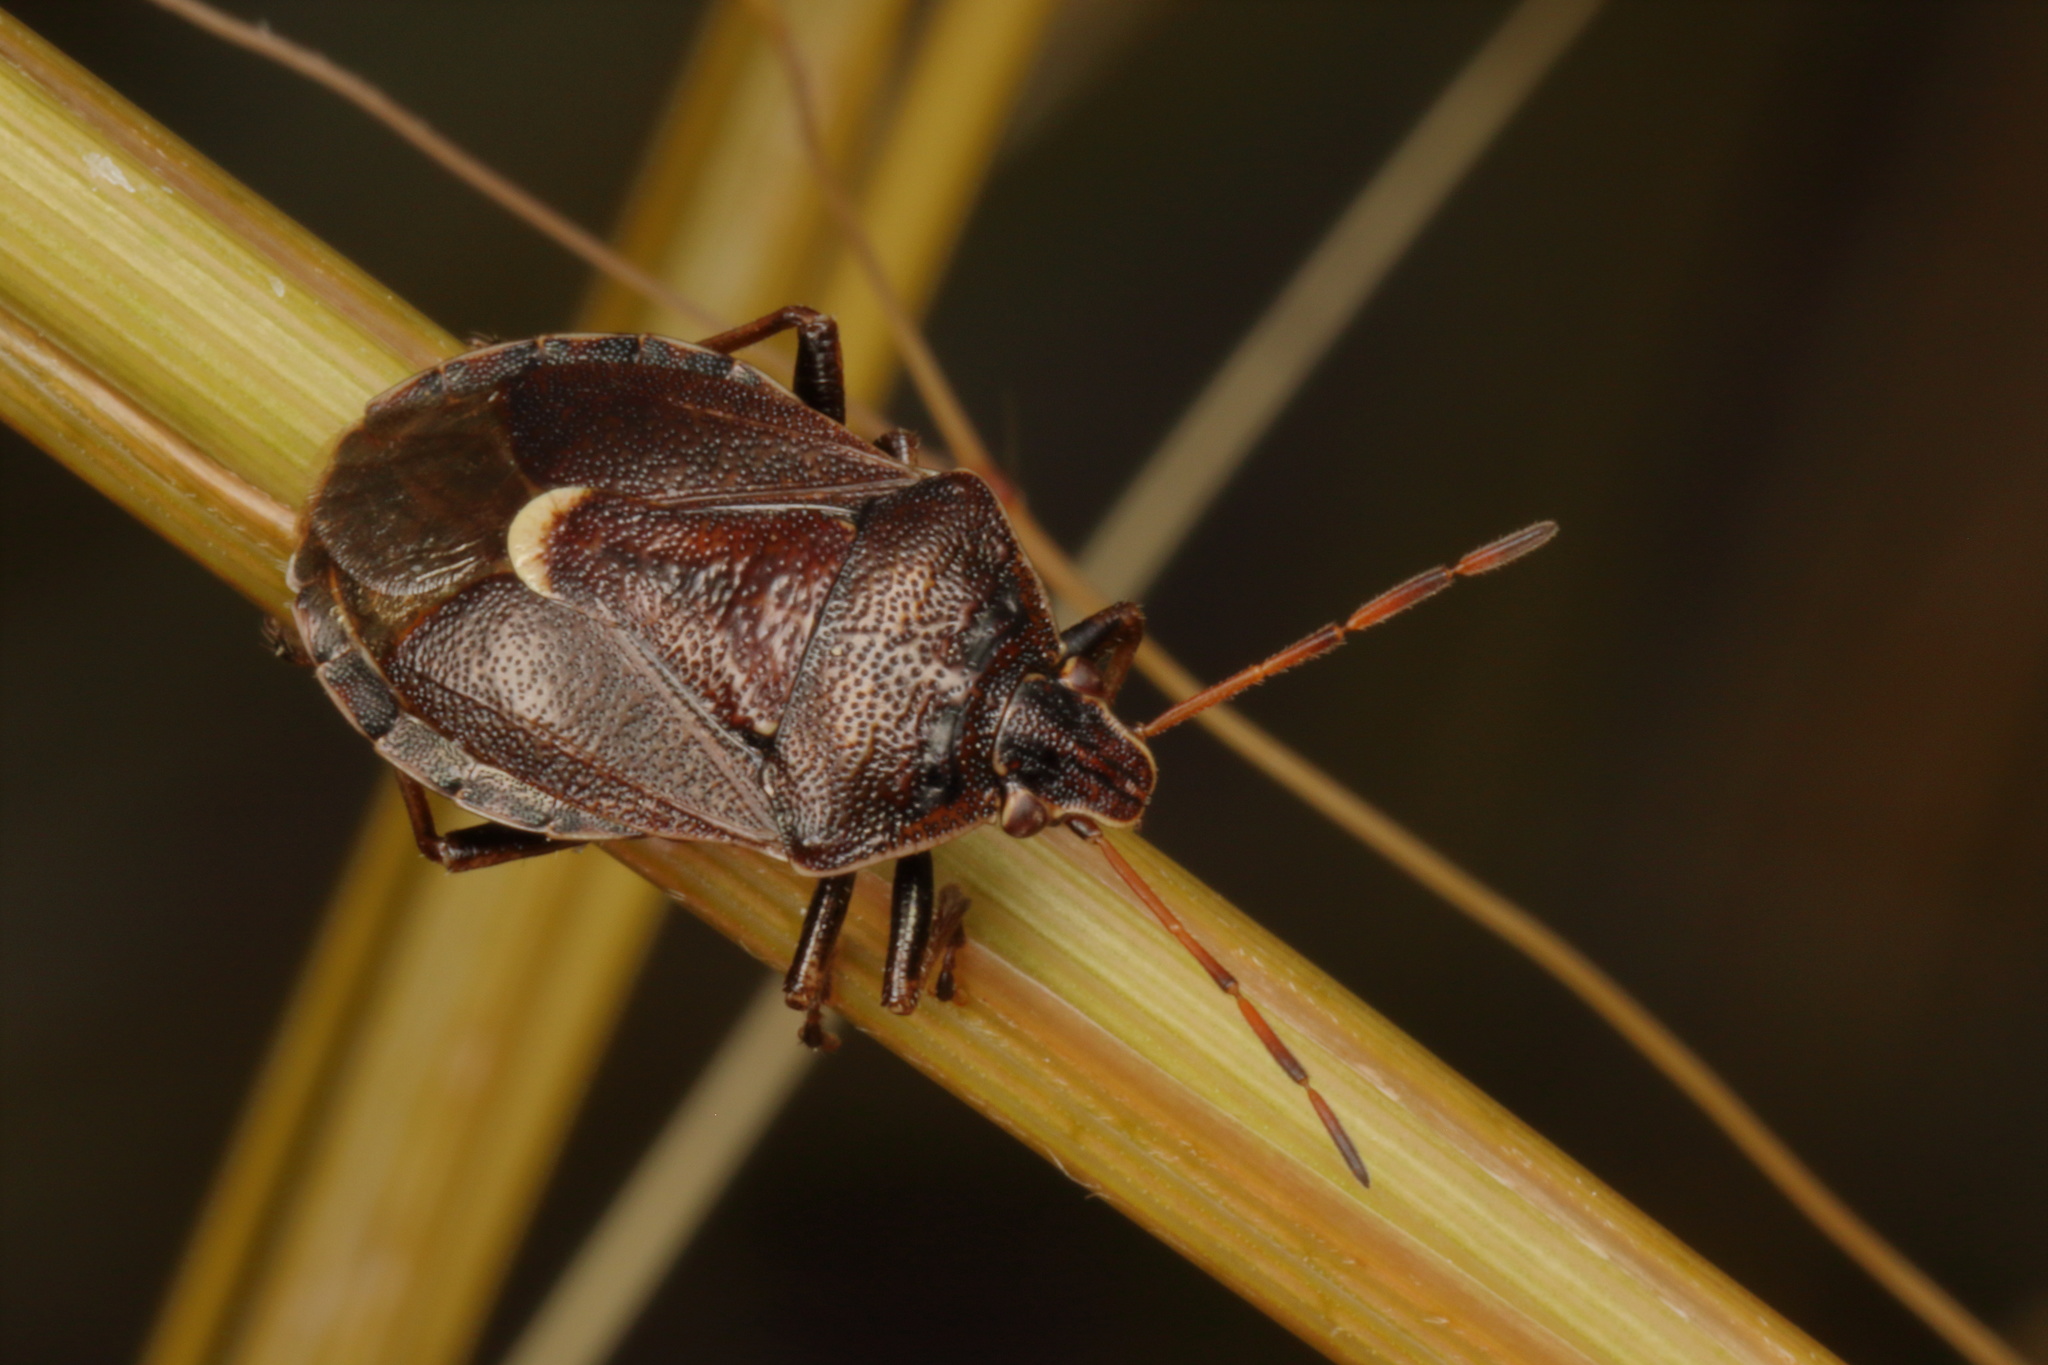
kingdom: Animalia
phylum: Arthropoda
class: Insecta
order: Hemiptera
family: Pentatomidae
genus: Cermatulus
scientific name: Cermatulus nasalis
